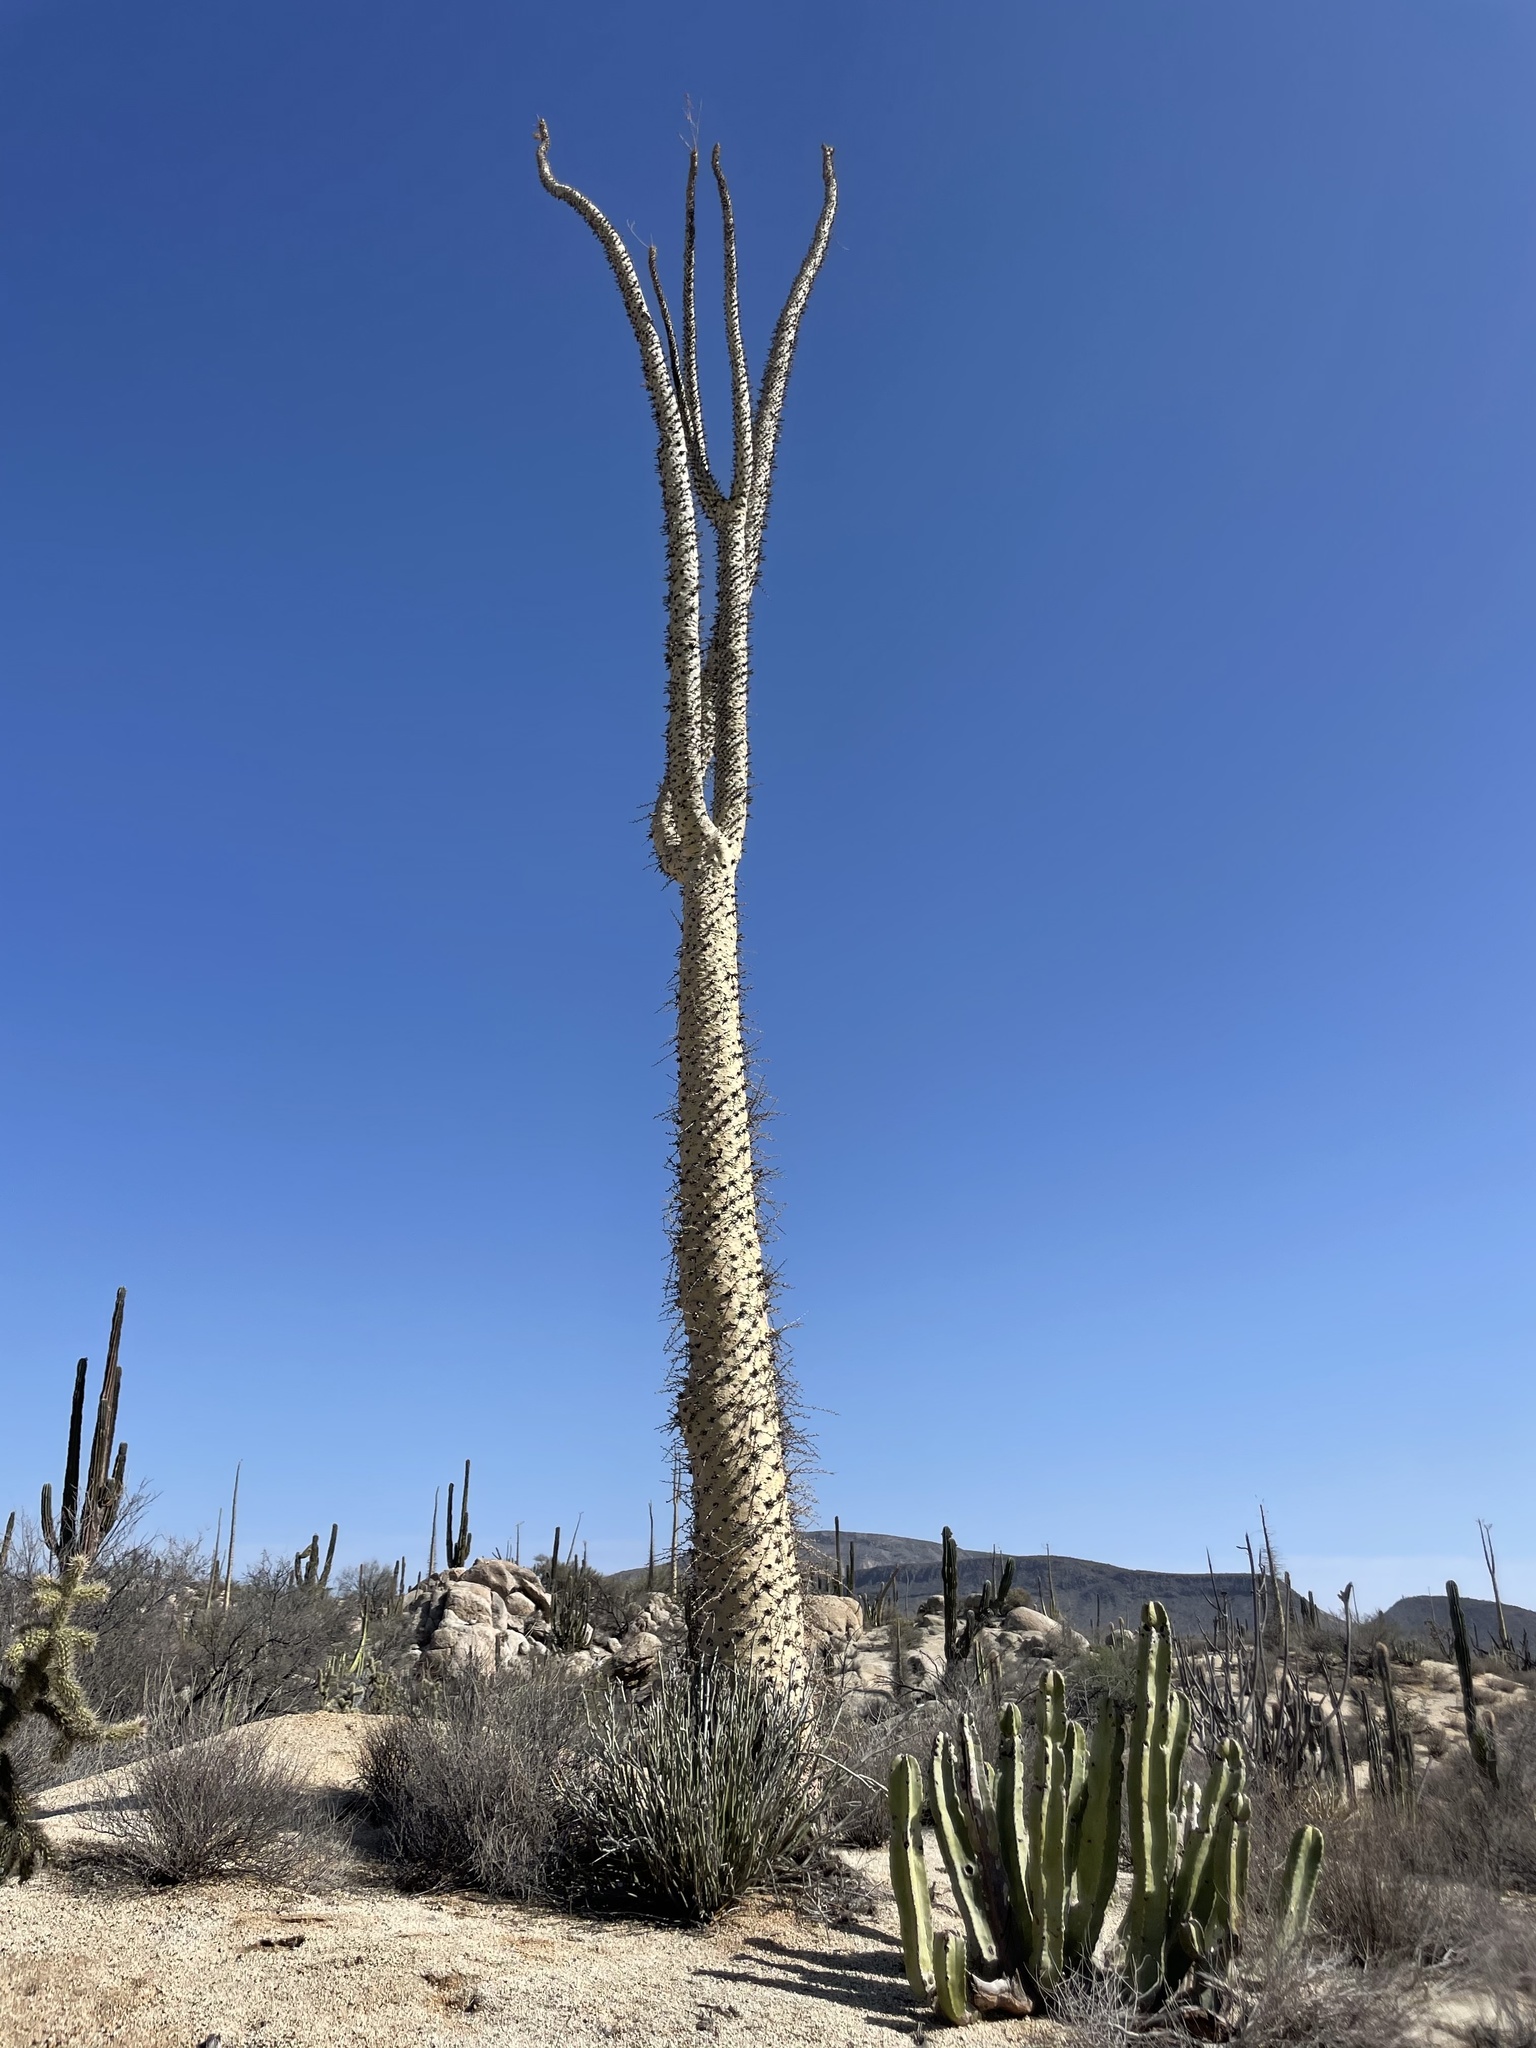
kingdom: Plantae
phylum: Tracheophyta
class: Magnoliopsida
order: Ericales
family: Fouquieriaceae
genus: Fouquieria
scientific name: Fouquieria columnaris
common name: Boojumtree
